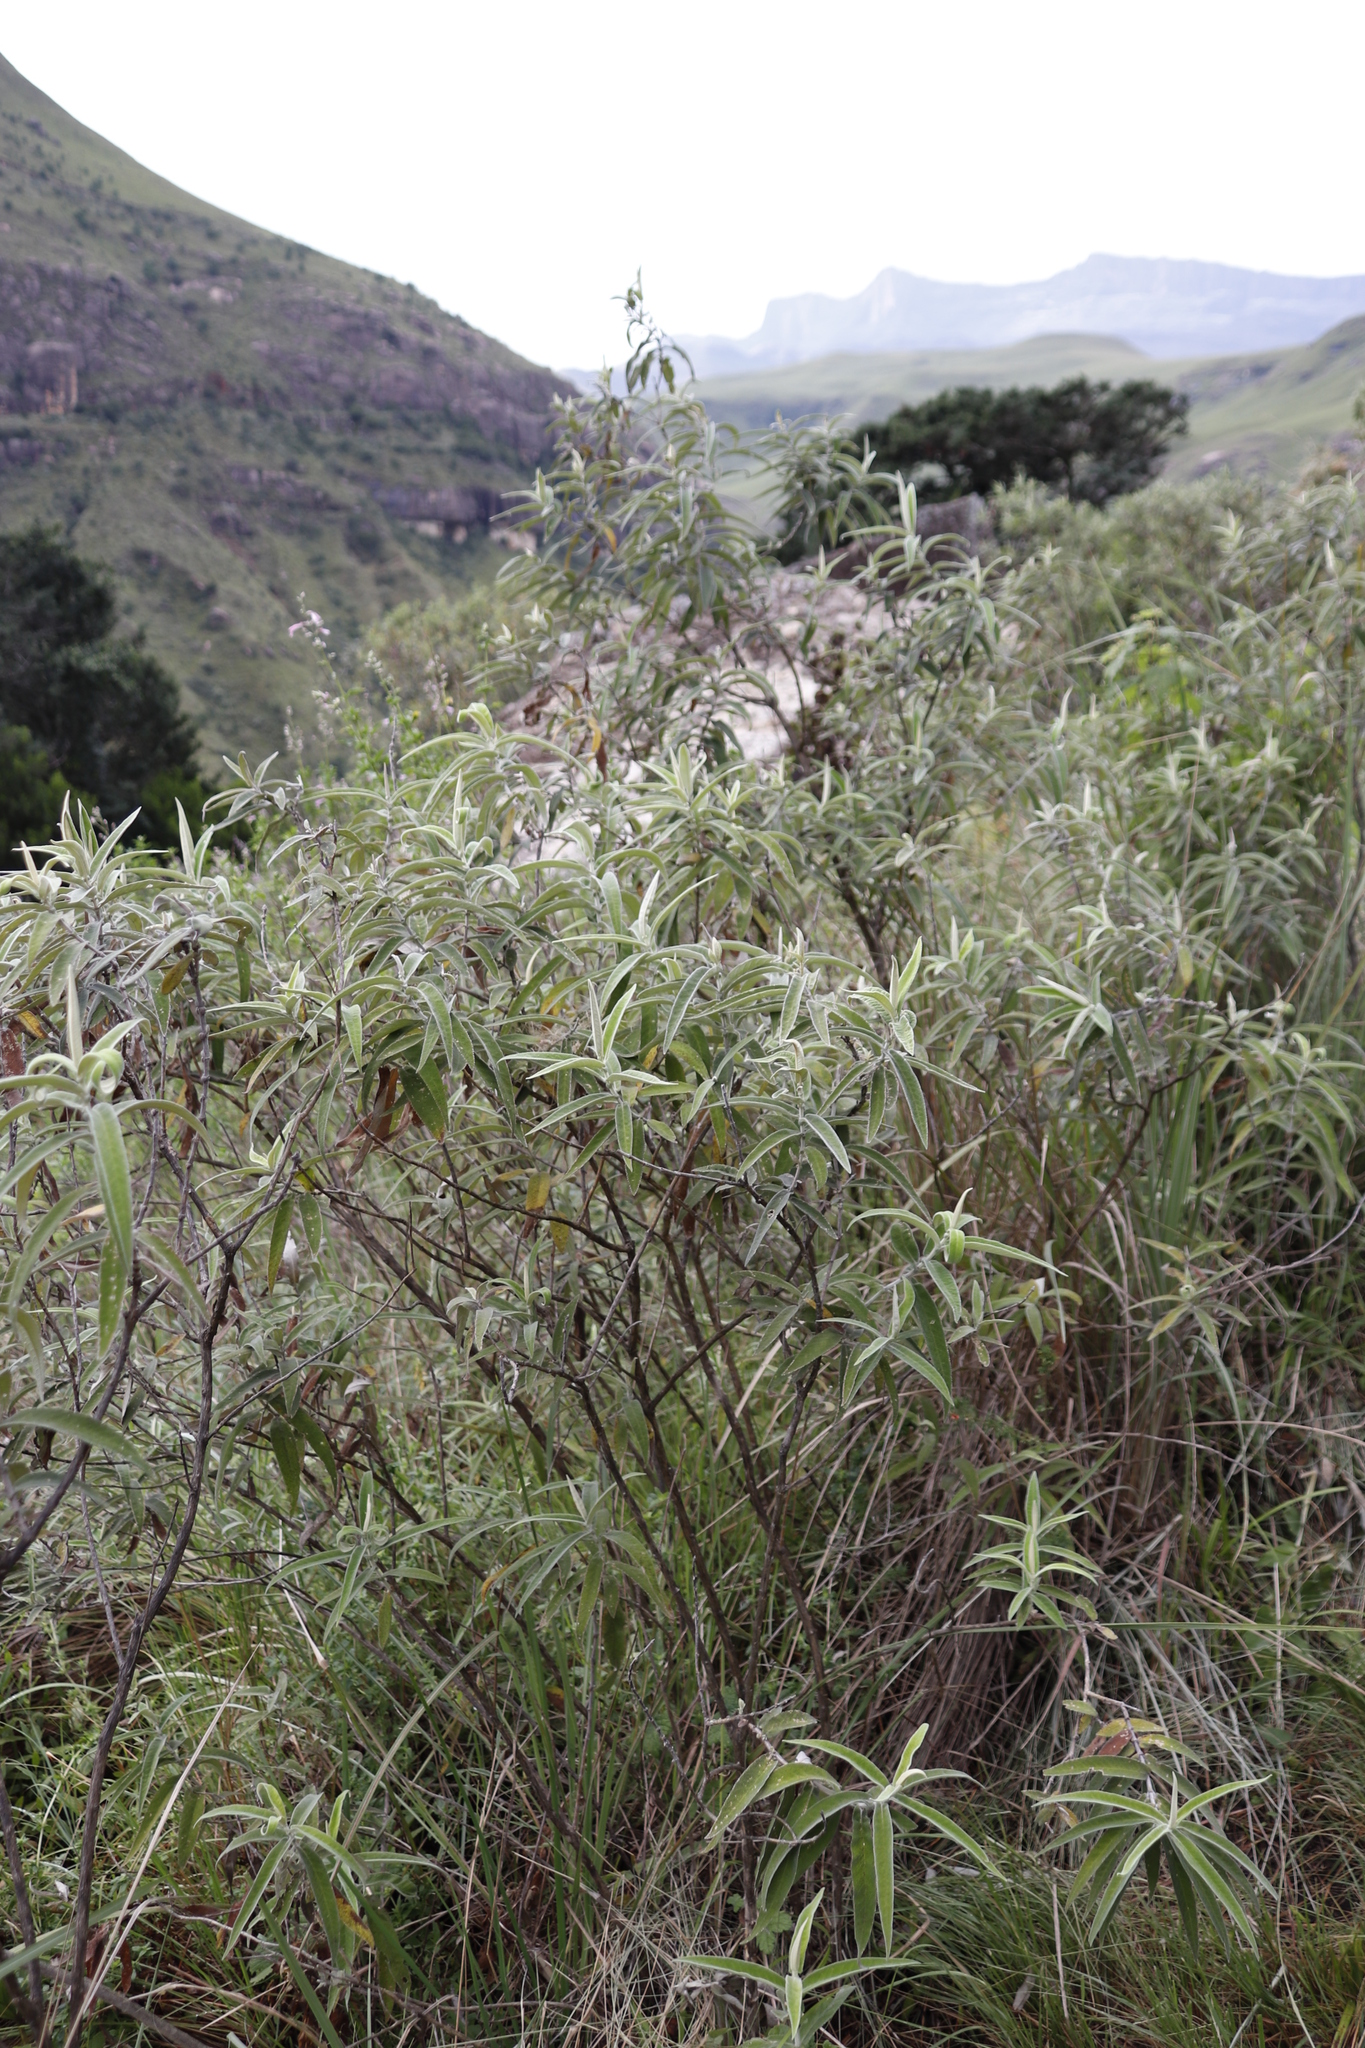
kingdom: Plantae
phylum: Tracheophyta
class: Magnoliopsida
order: Lamiales
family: Scrophulariaceae
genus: Buddleja
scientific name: Buddleja salviifolia
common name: Sagewood
